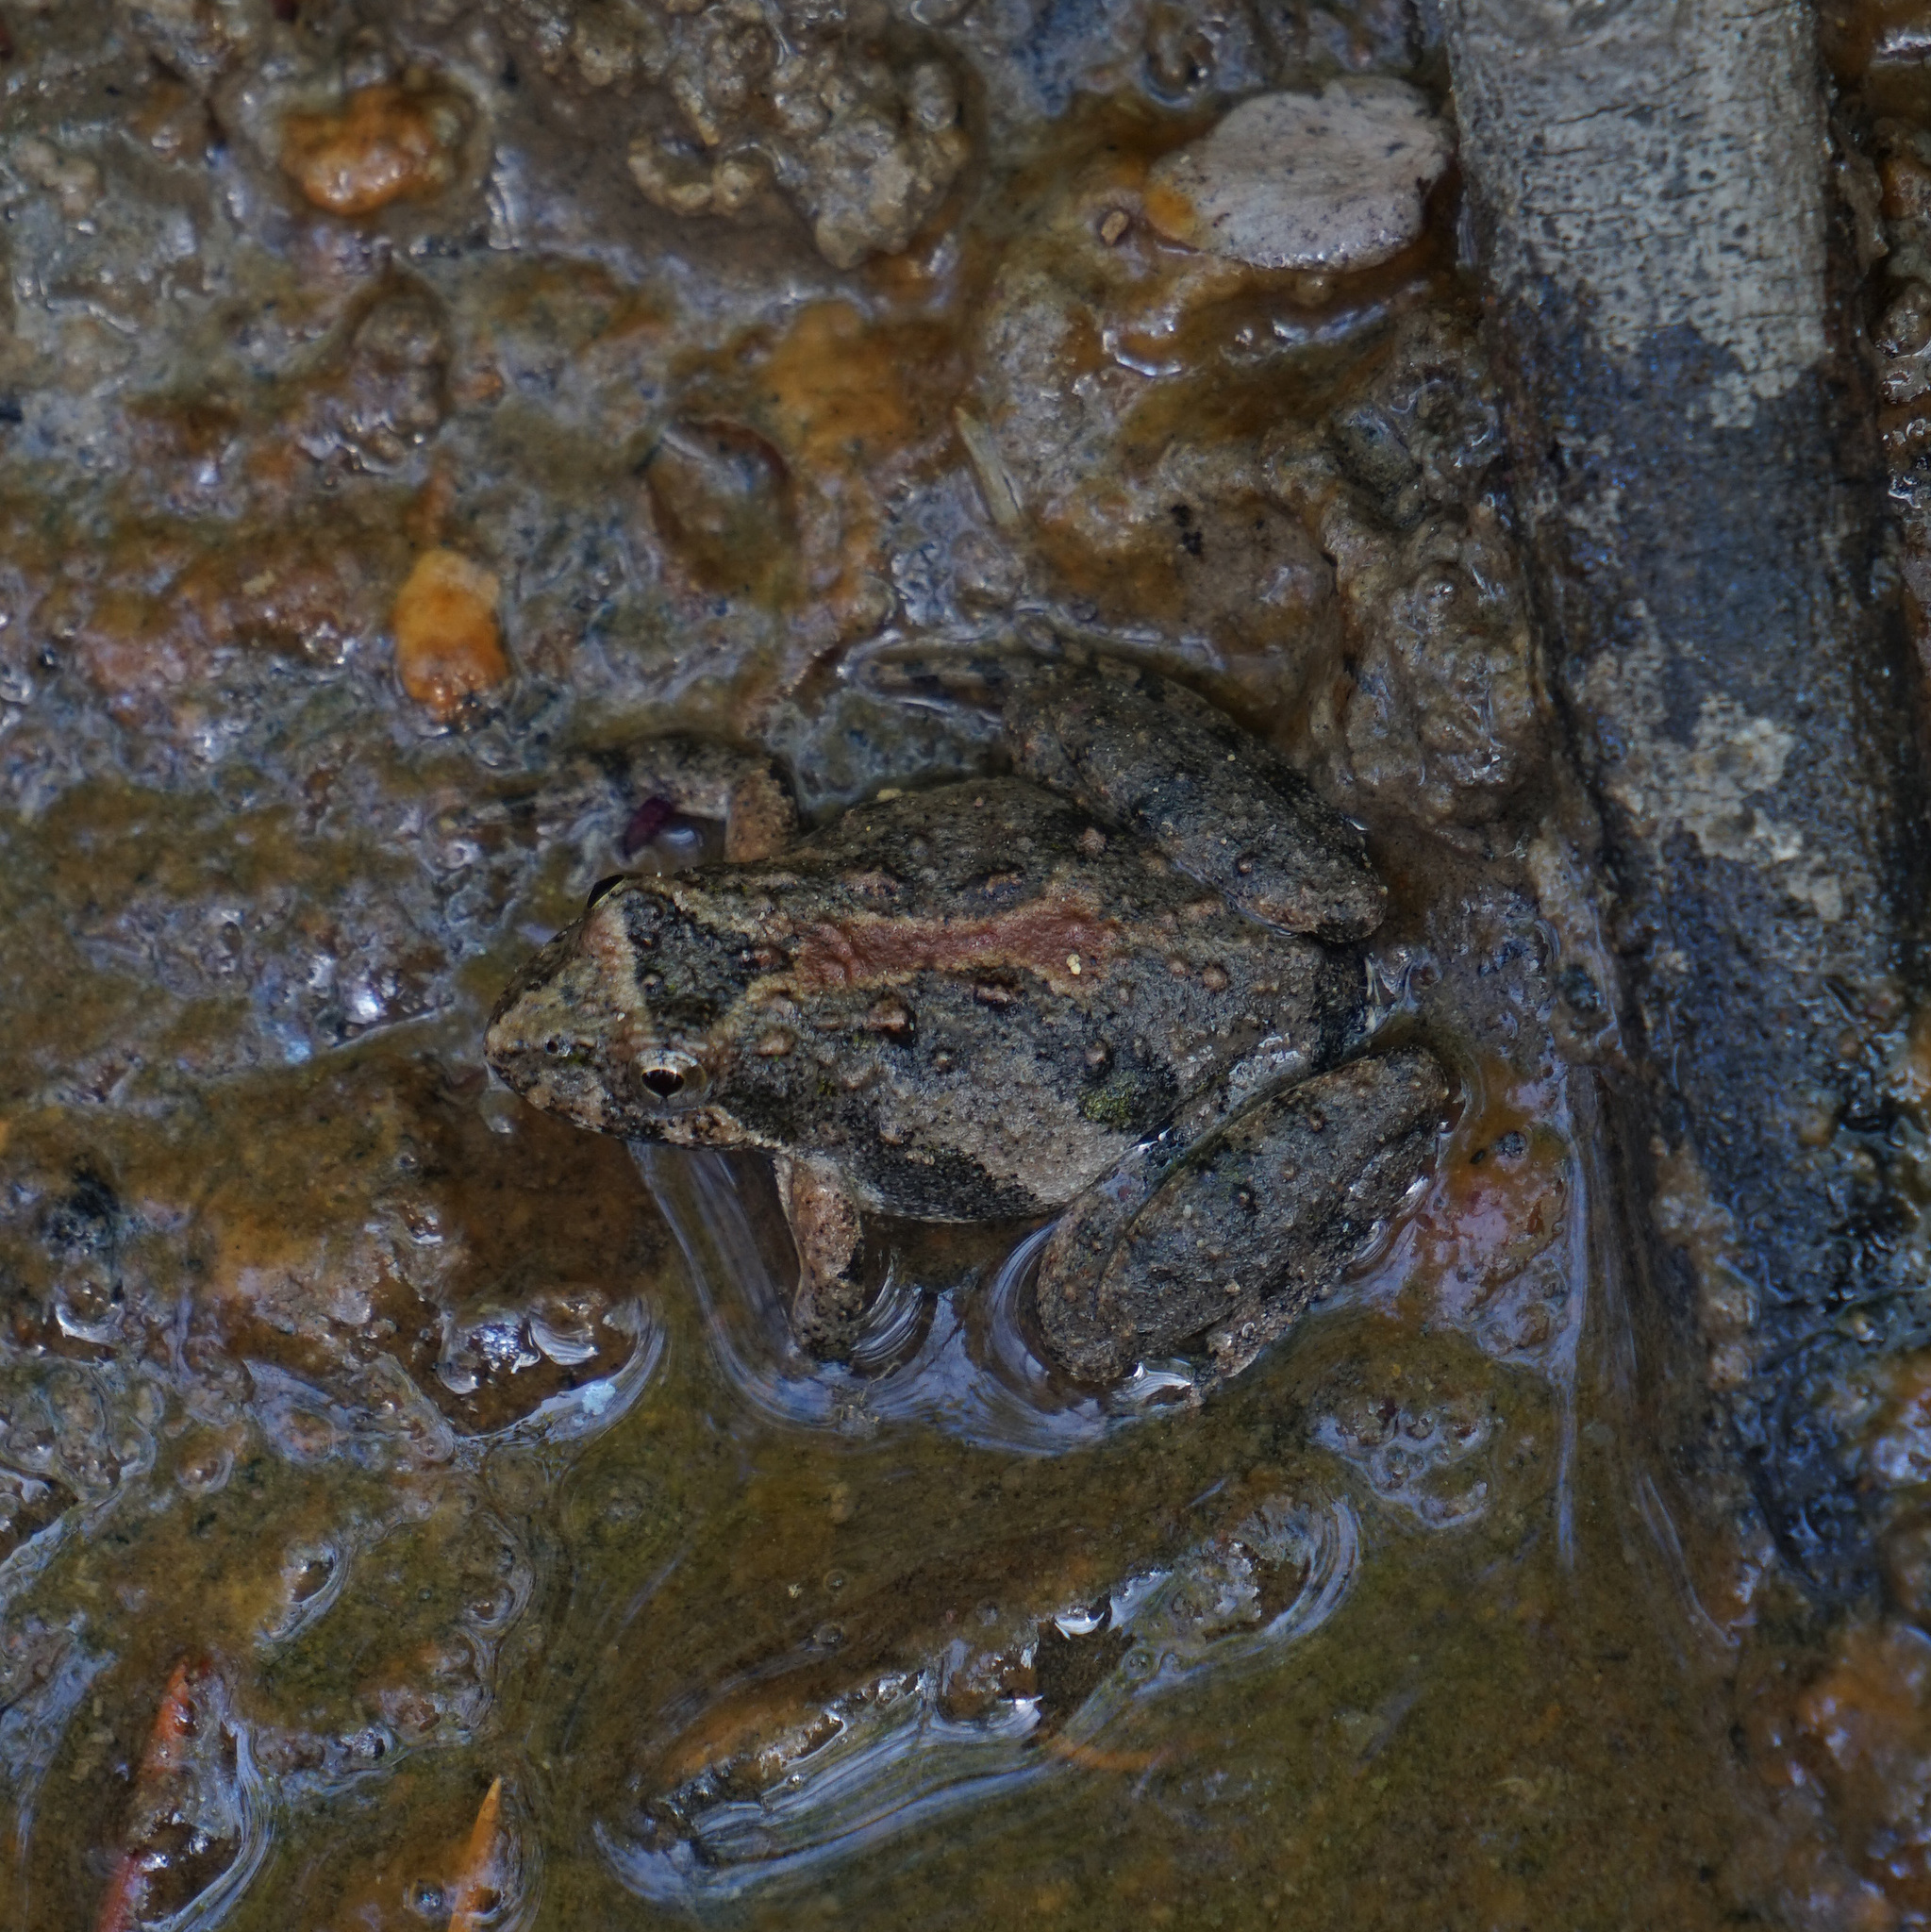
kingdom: Animalia
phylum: Chordata
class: Amphibia
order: Anura
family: Hylidae
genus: Acris
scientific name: Acris crepitans
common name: Northern cricket frog
